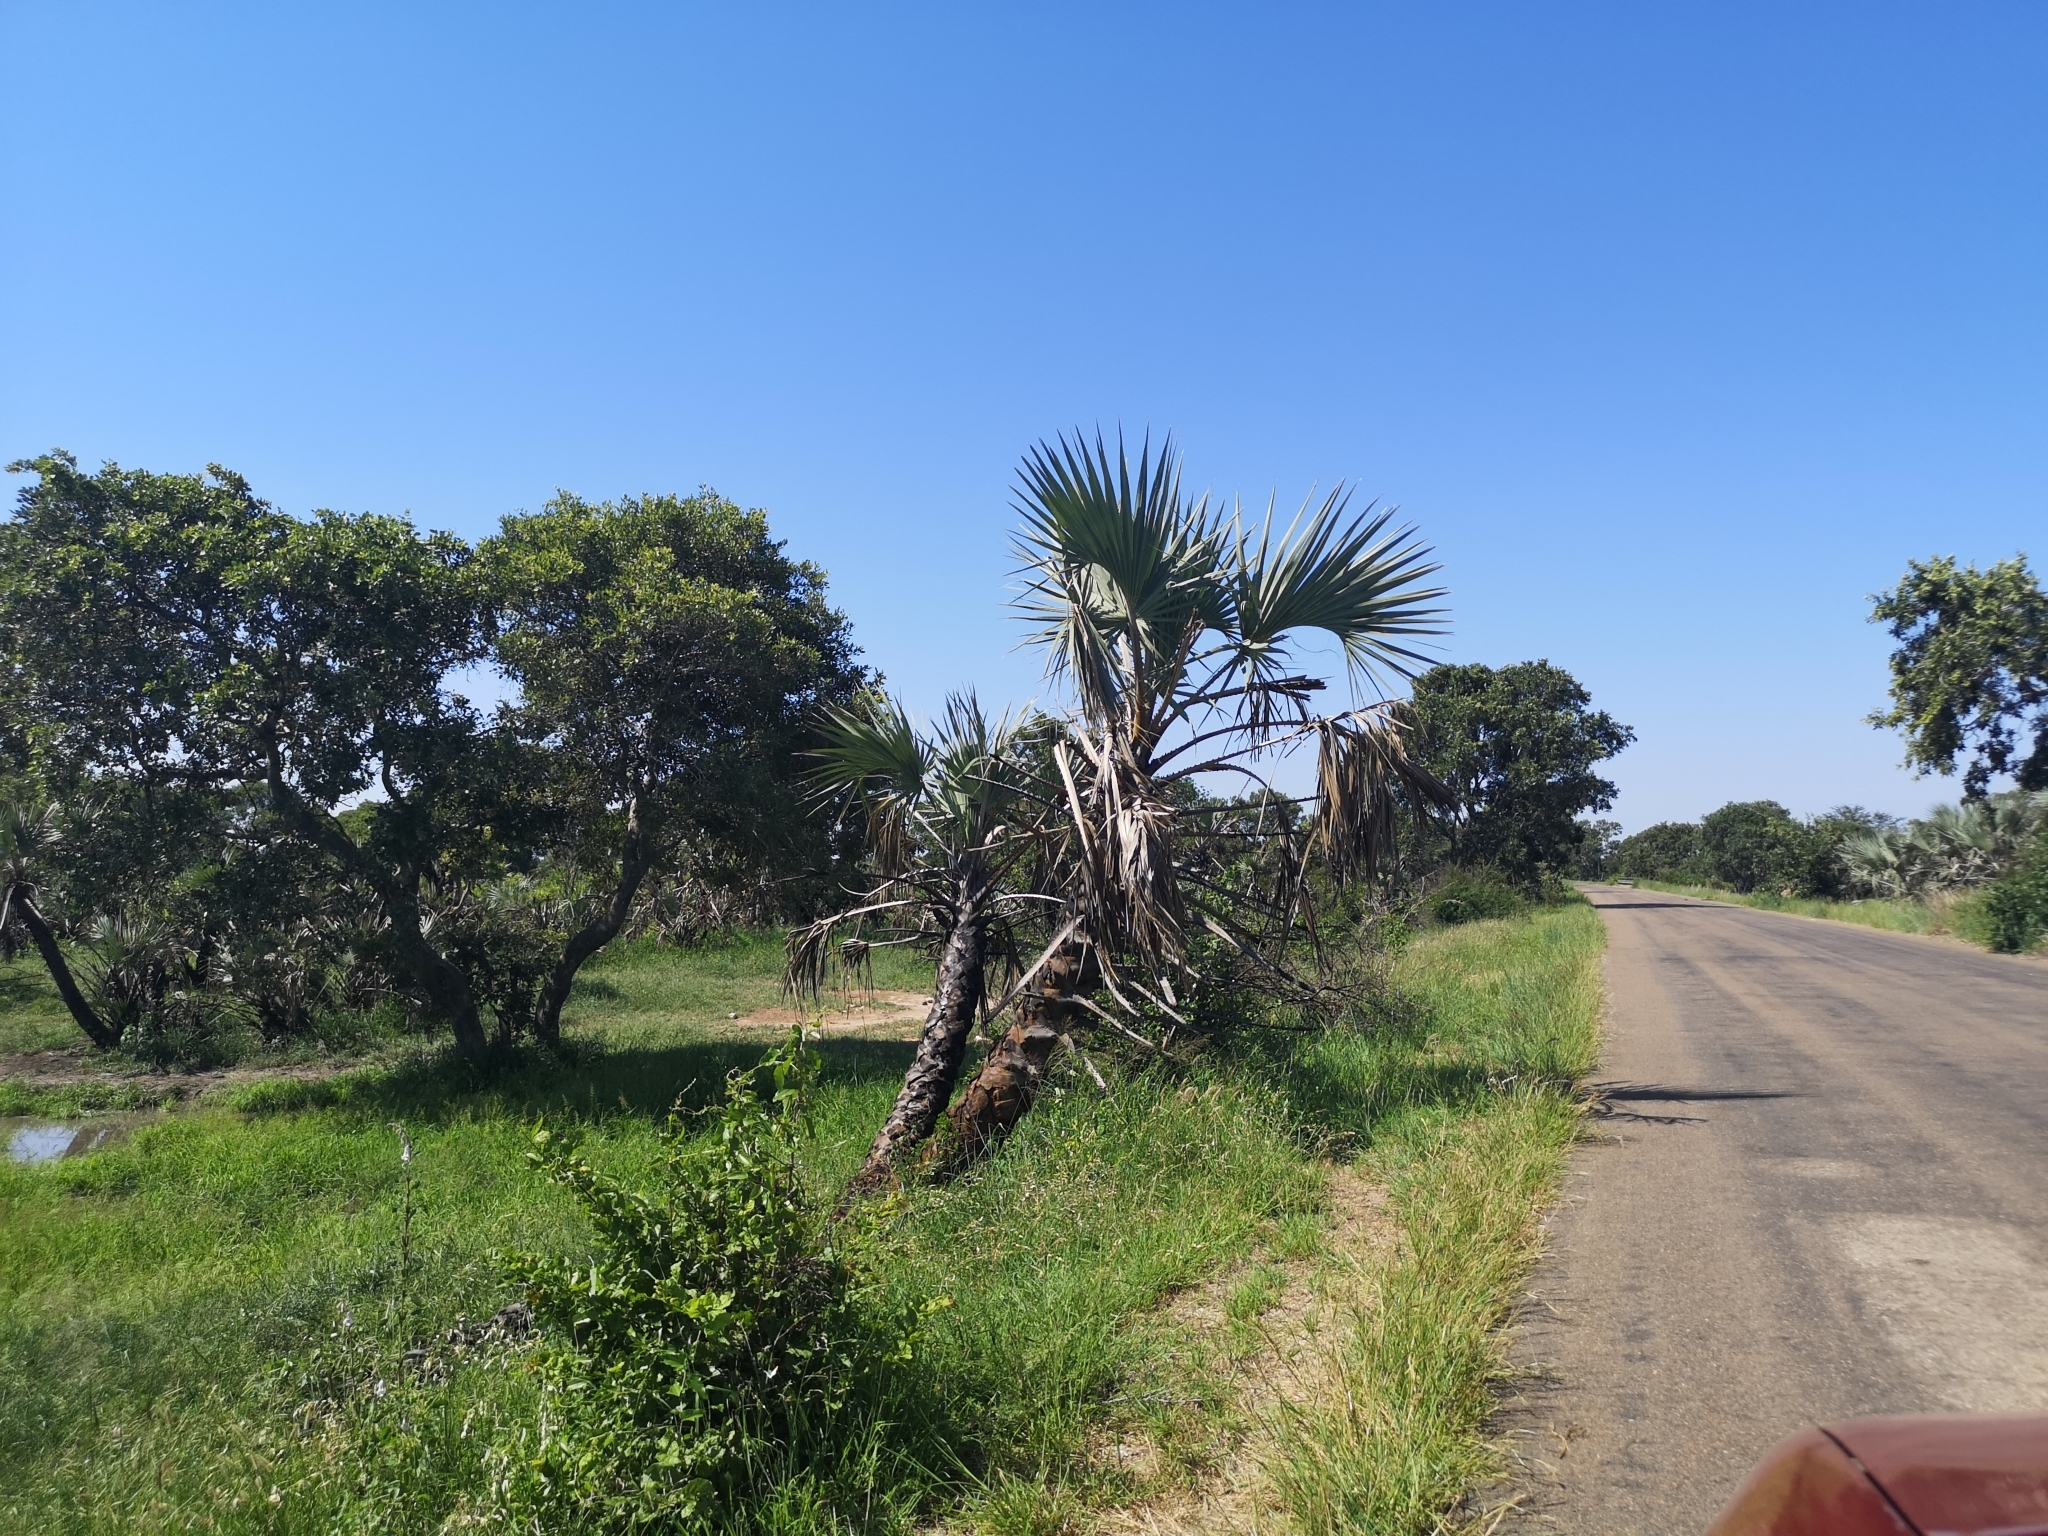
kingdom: Plantae
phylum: Tracheophyta
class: Liliopsida
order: Arecales
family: Arecaceae
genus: Hyphaene
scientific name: Hyphaene coriacea
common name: Ilala palm
